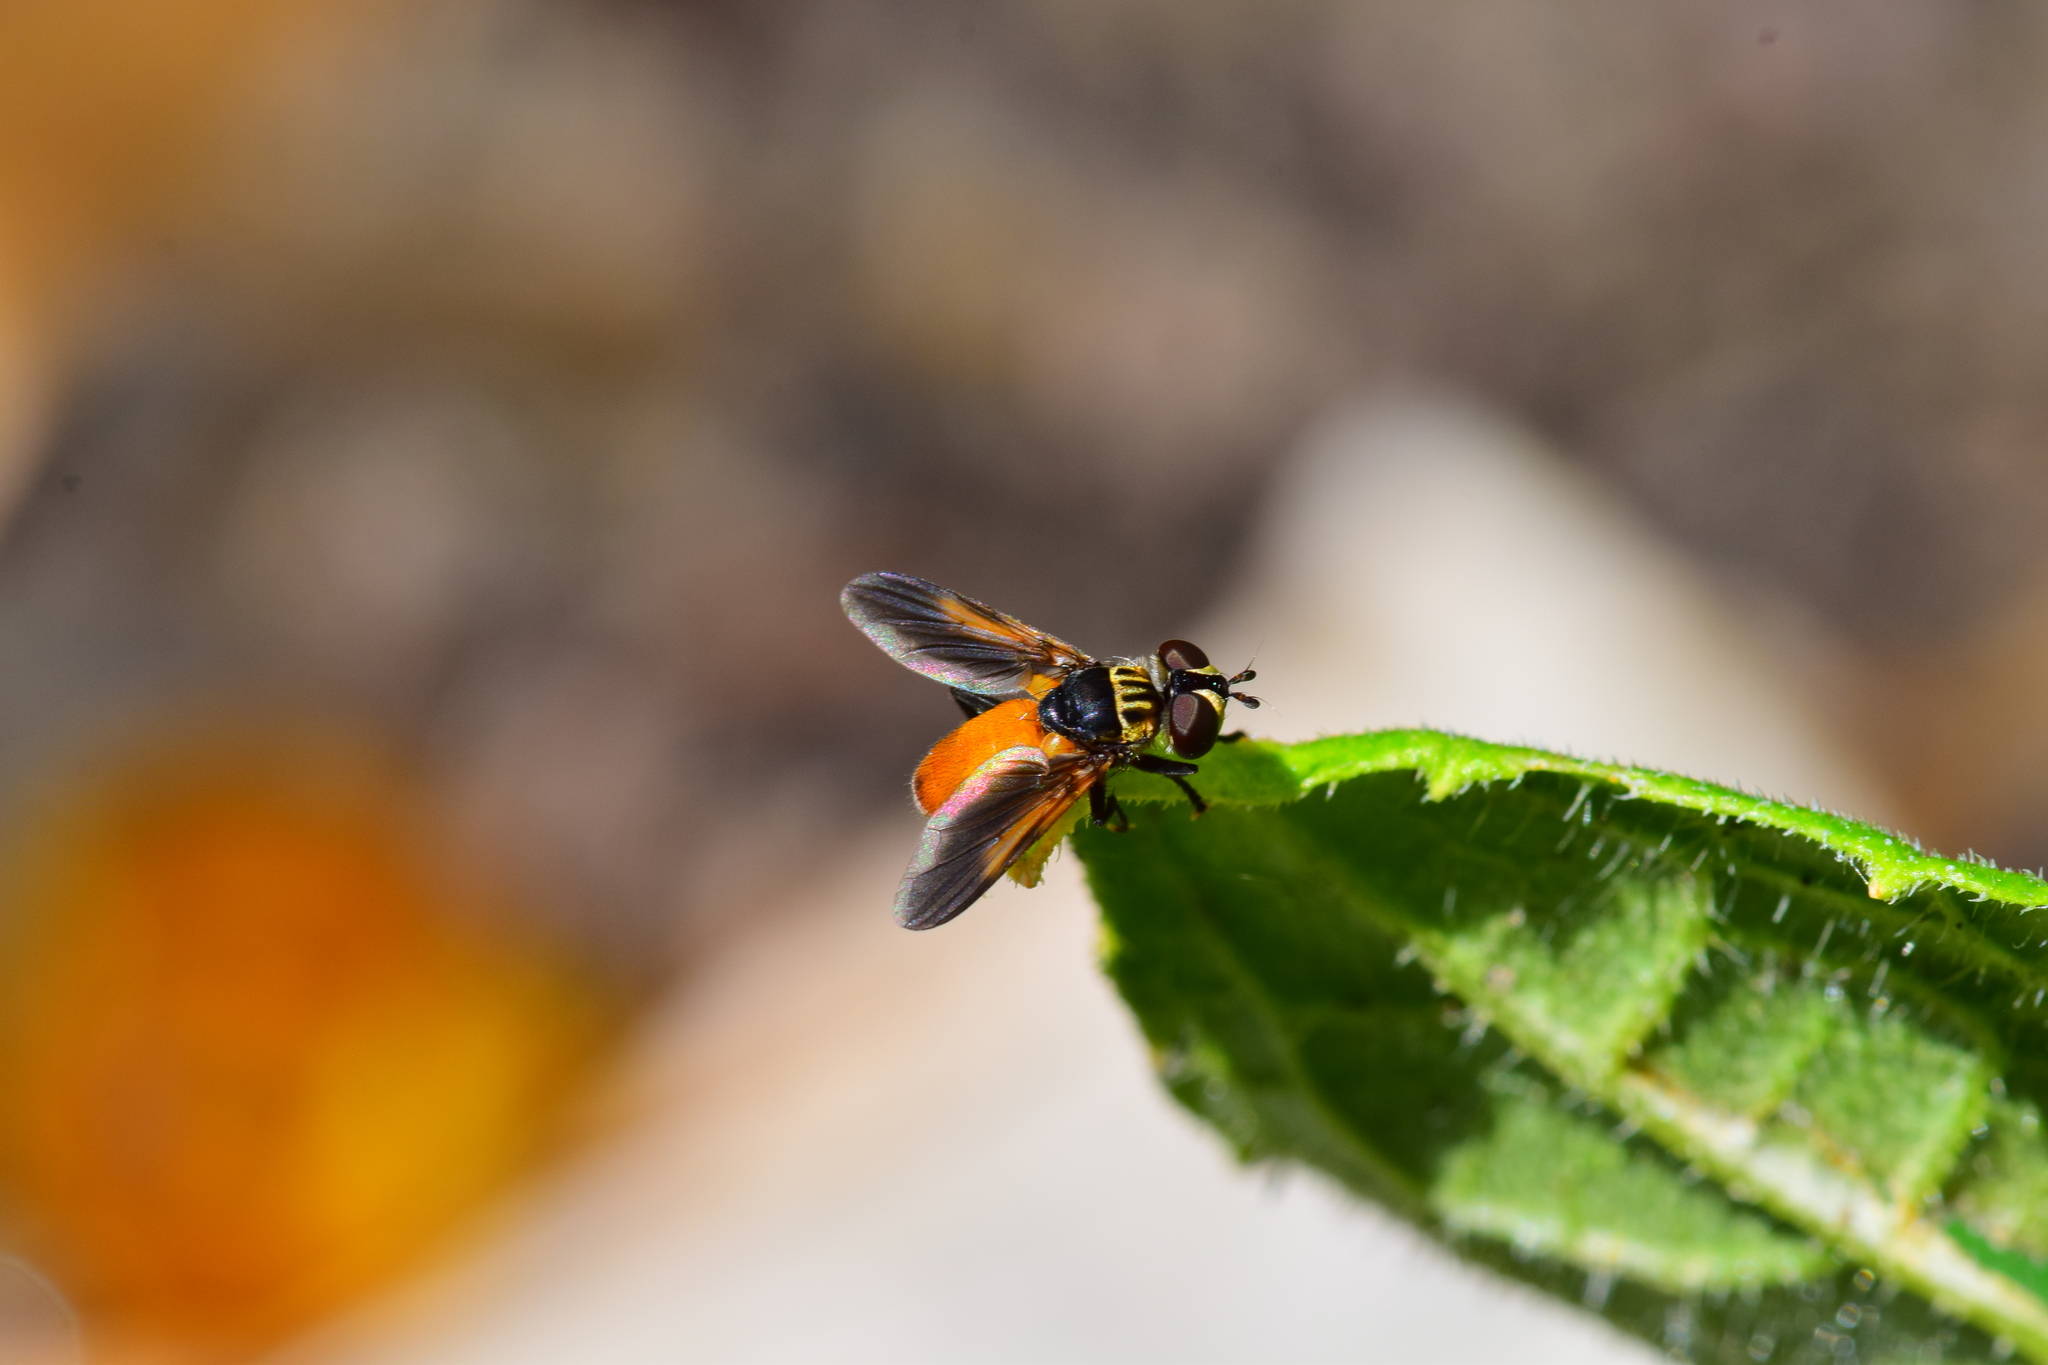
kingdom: Animalia
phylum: Arthropoda
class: Insecta
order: Diptera
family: Tachinidae
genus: Trichopoda
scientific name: Trichopoda pennipes
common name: Tachinid fly
